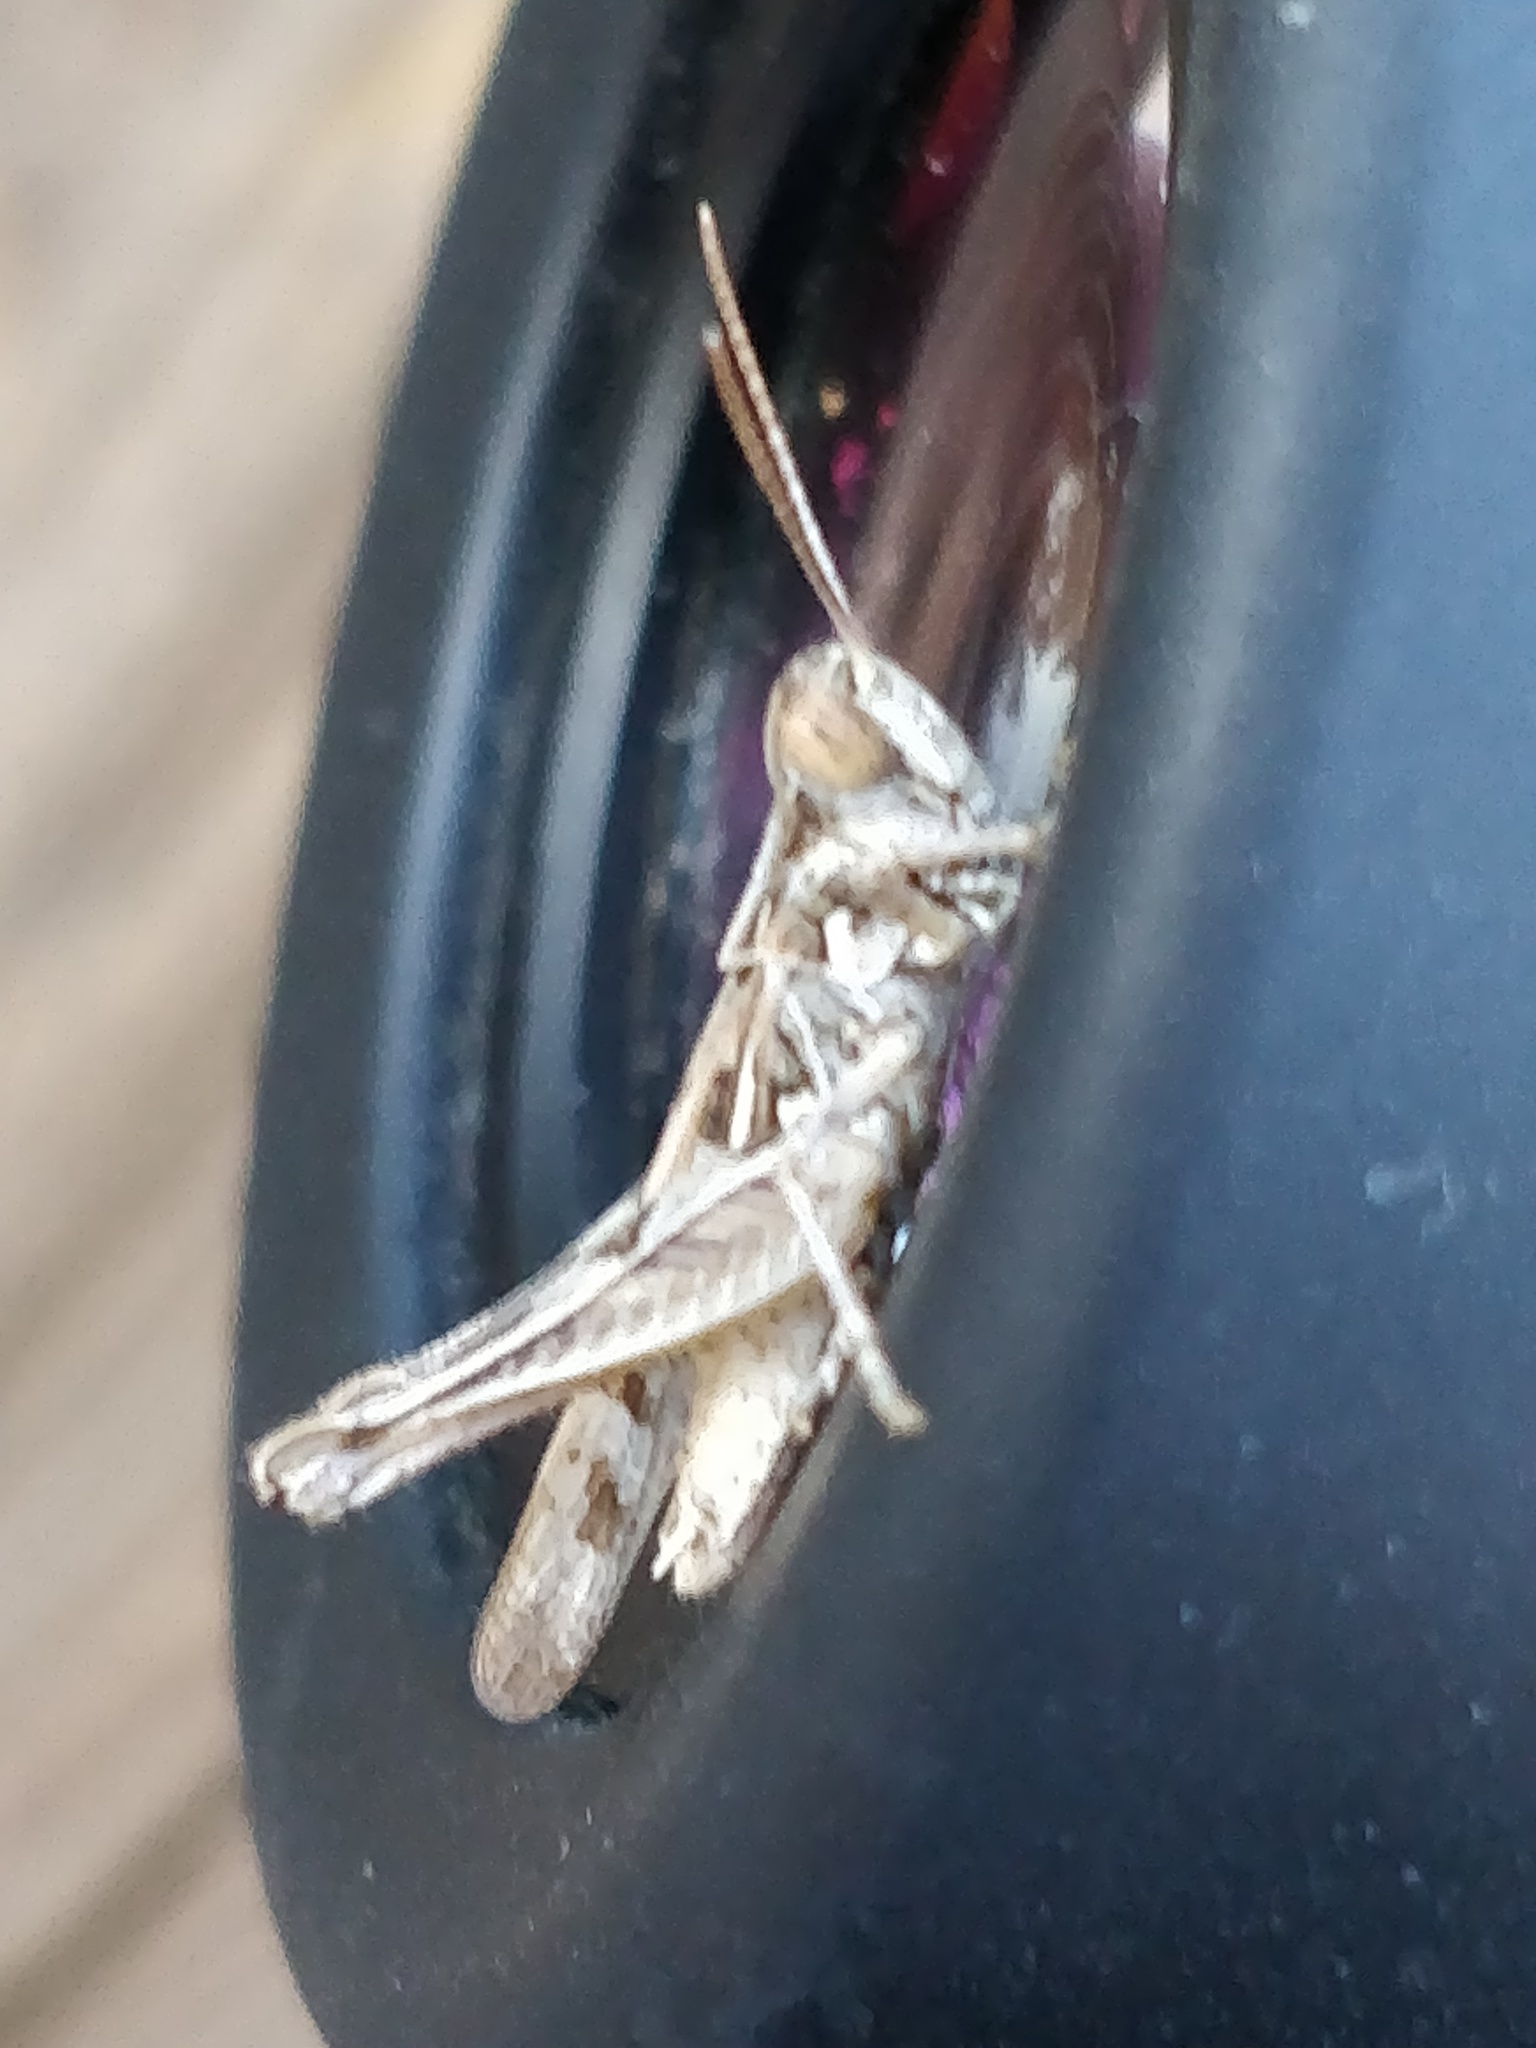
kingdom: Animalia
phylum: Arthropoda
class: Insecta
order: Orthoptera
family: Acrididae
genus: Dociostaurus
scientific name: Dociostaurus jagoi
